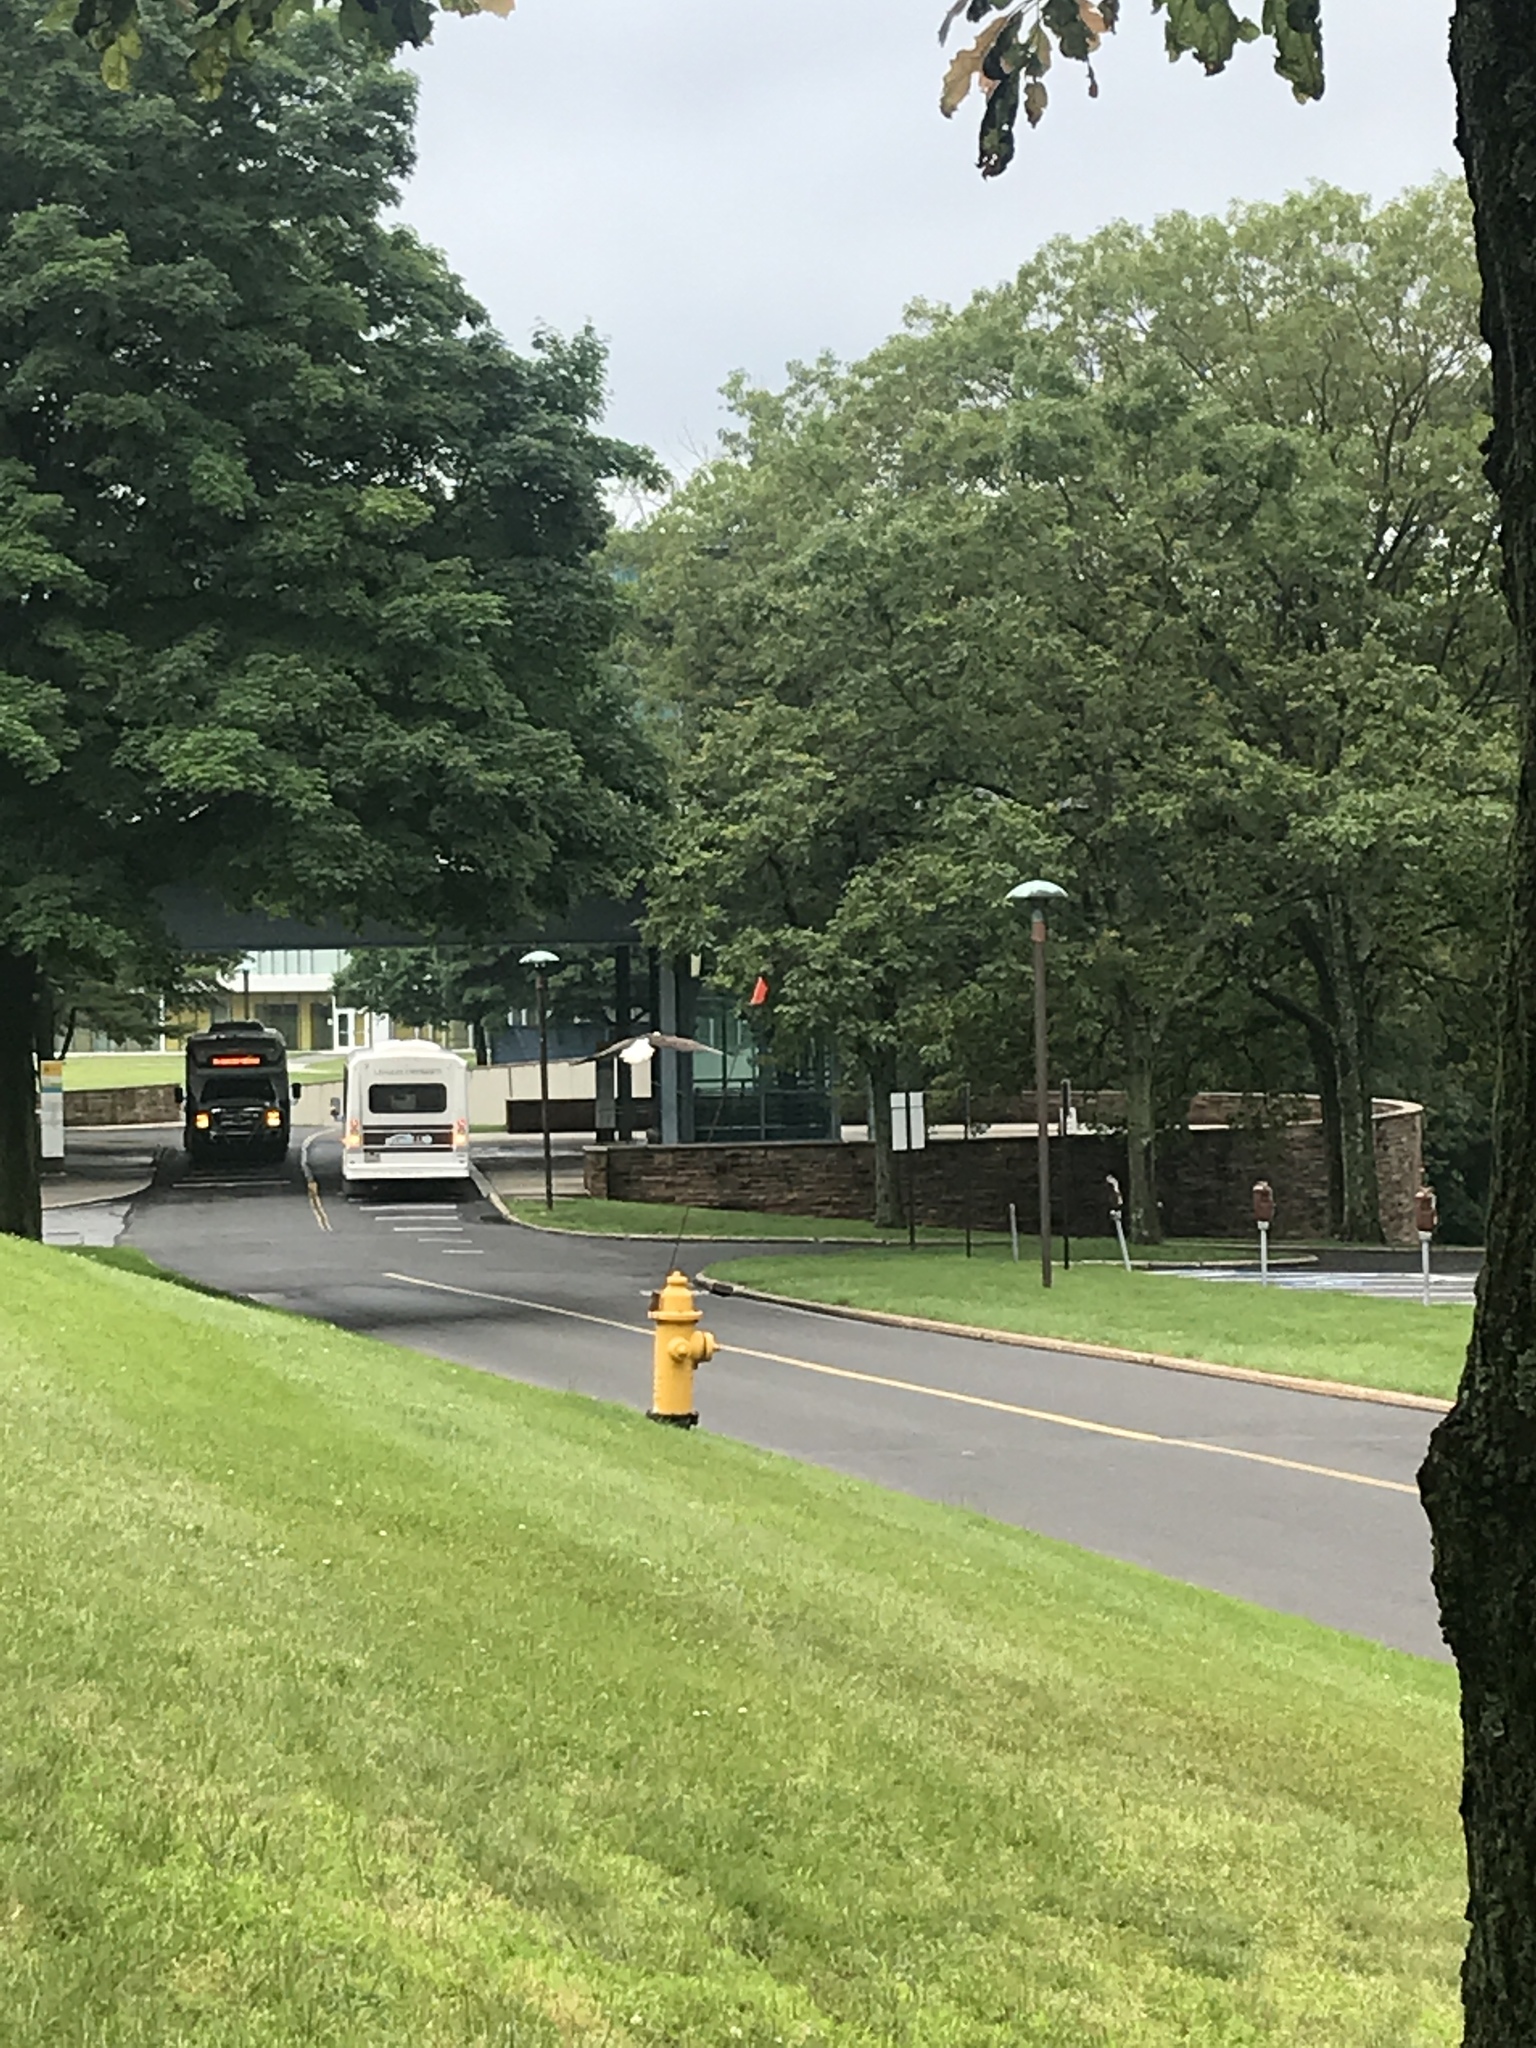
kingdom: Animalia
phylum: Chordata
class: Aves
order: Accipitriformes
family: Accipitridae
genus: Haliaeetus
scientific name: Haliaeetus leucocephalus
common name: Bald eagle
